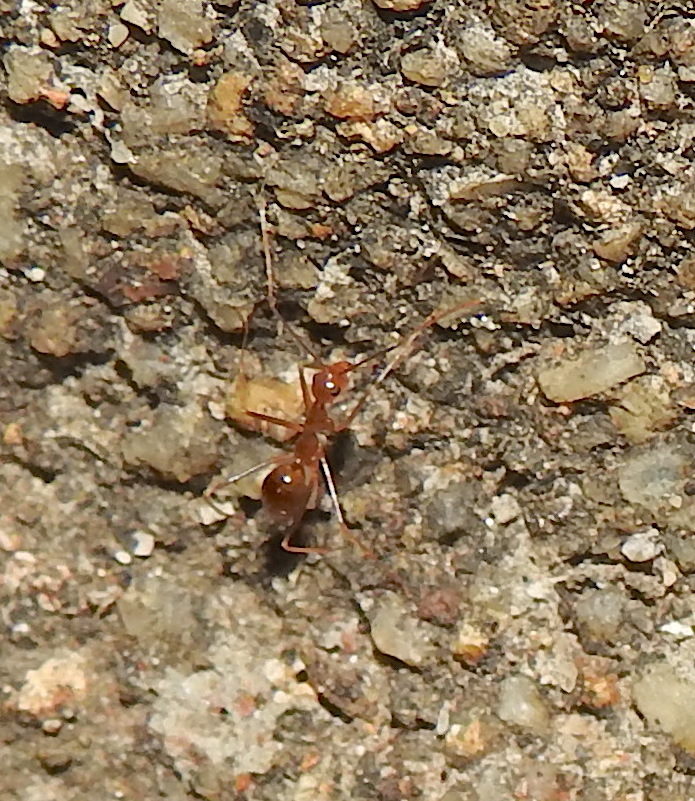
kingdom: Animalia
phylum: Arthropoda
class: Insecta
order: Hymenoptera
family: Formicidae
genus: Anoplolepis
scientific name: Anoplolepis gracilipes
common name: Ant
